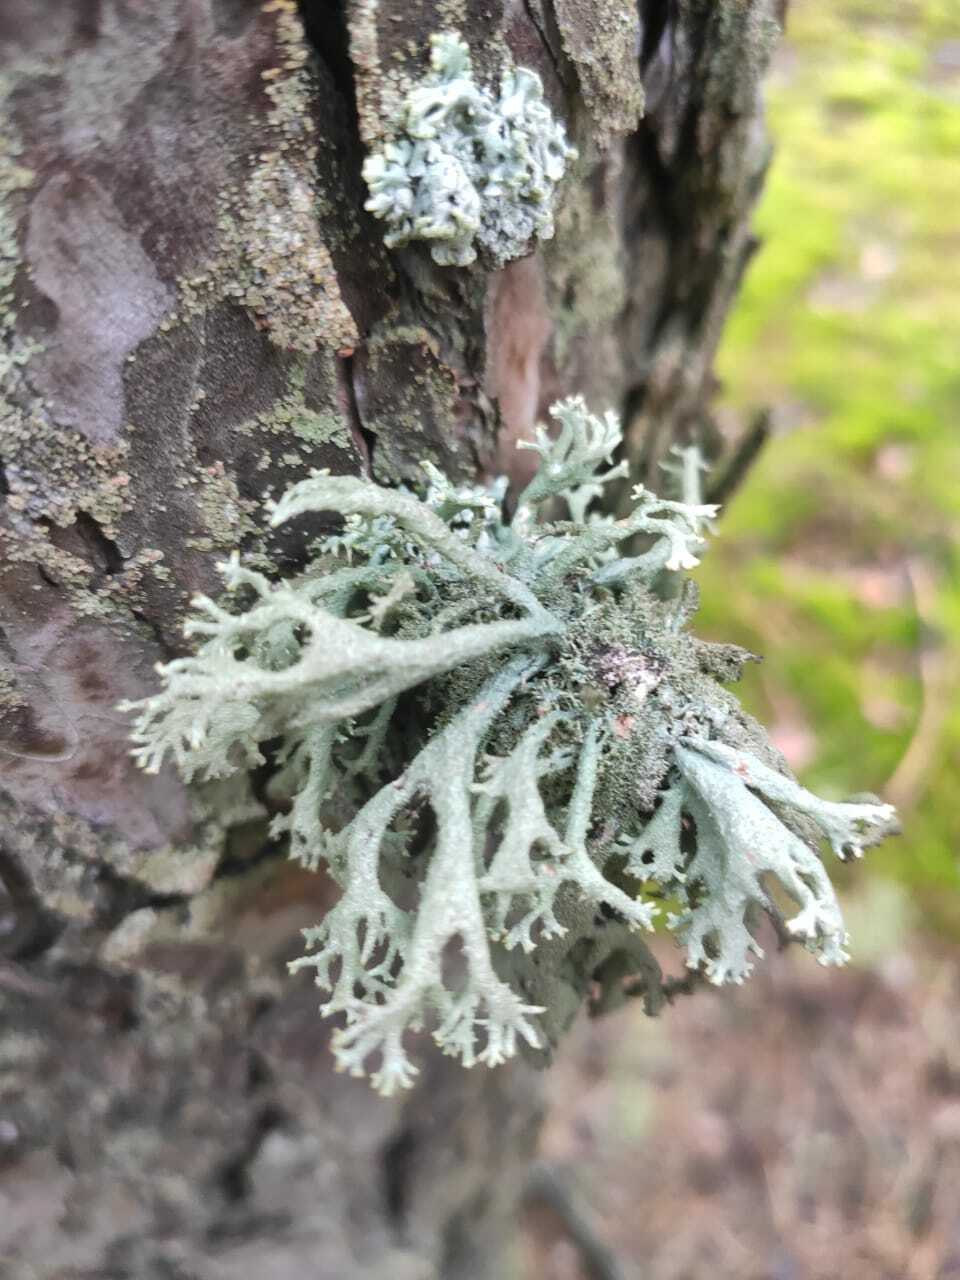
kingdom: Fungi
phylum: Ascomycota
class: Lecanoromycetes
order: Lecanorales
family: Parmeliaceae
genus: Pseudevernia
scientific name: Pseudevernia furfuracea
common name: Tree moss
